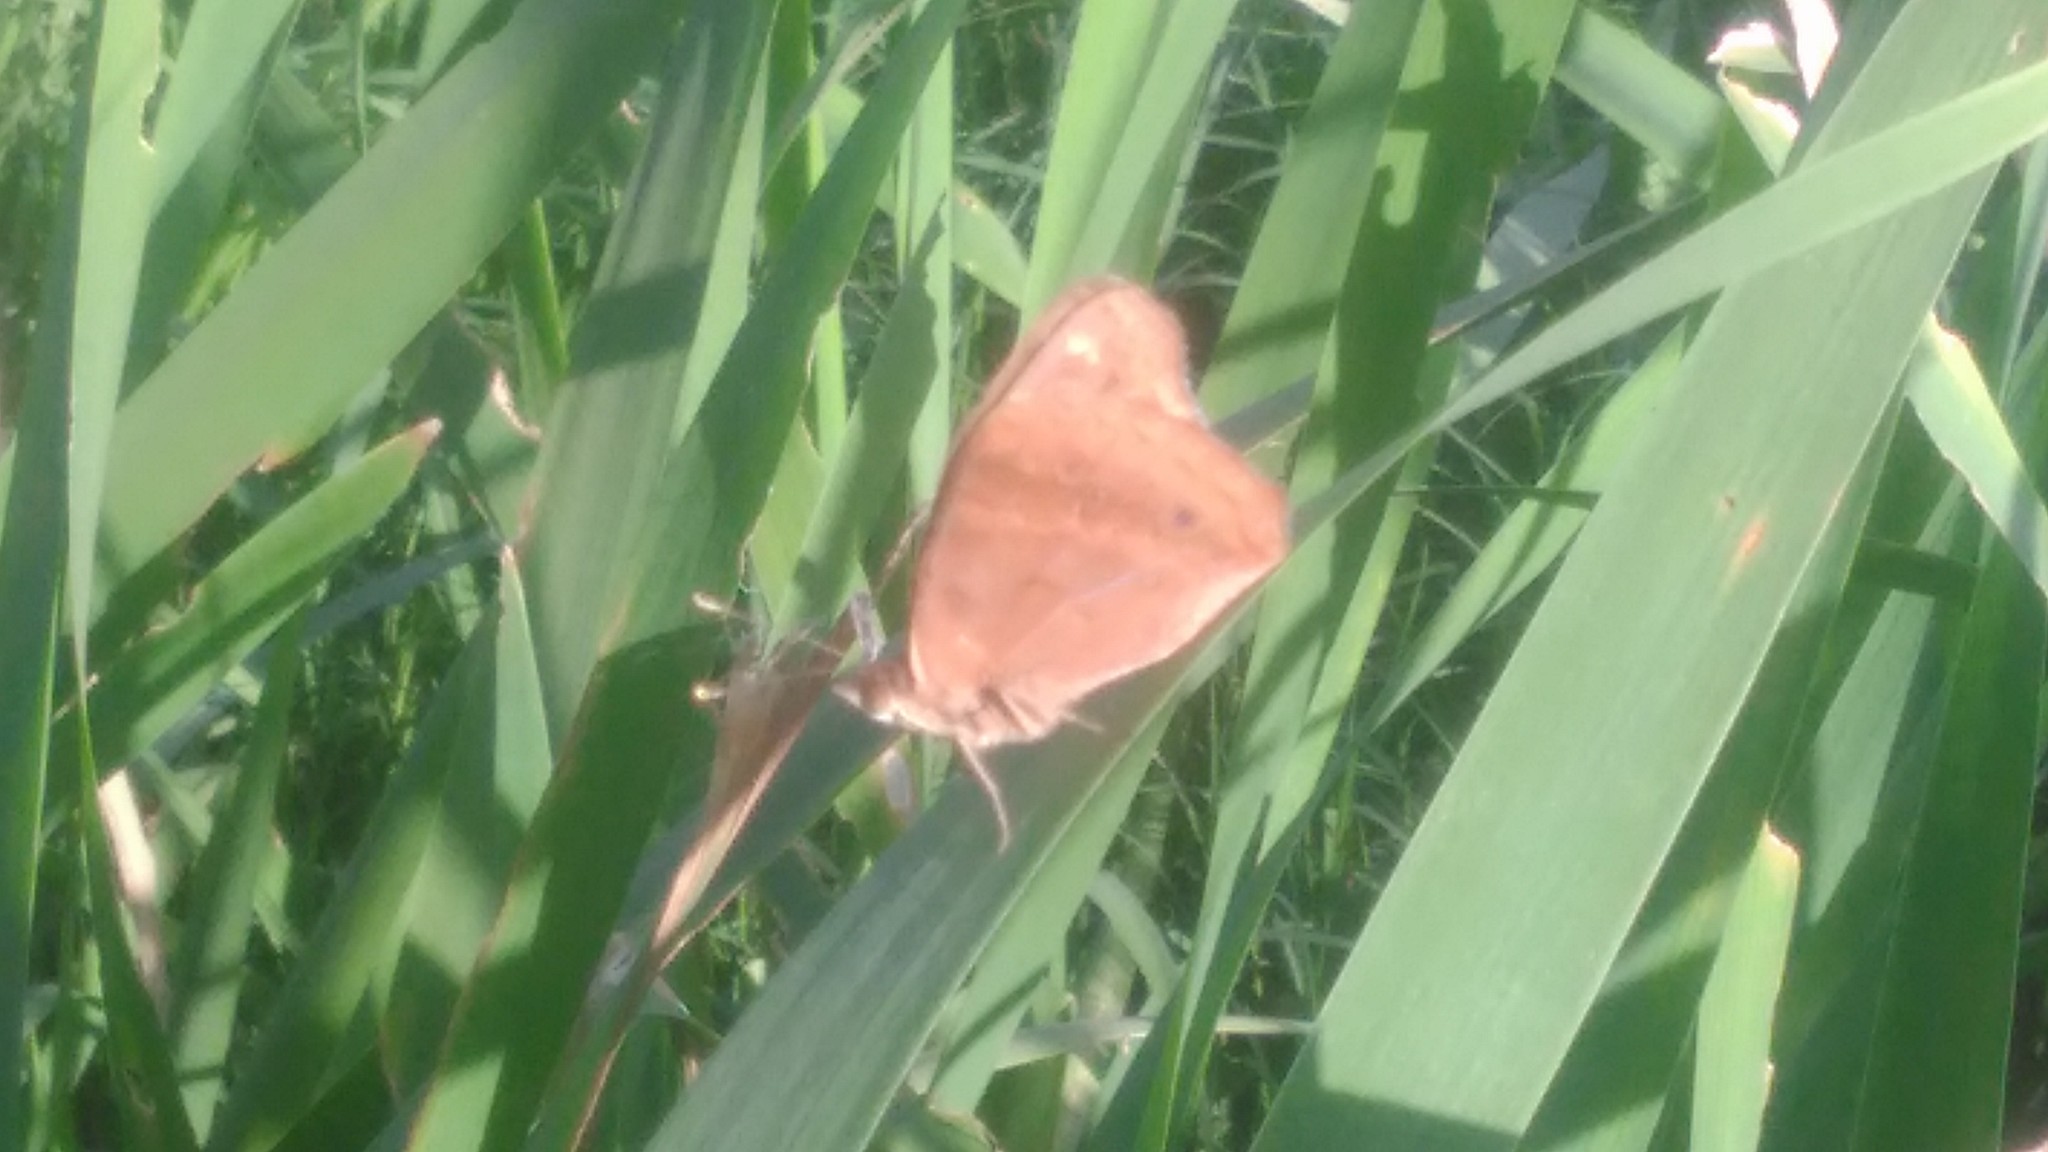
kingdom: Animalia
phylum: Arthropoda
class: Insecta
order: Lepidoptera
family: Nymphalidae
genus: Junonia
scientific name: Junonia lavinia
